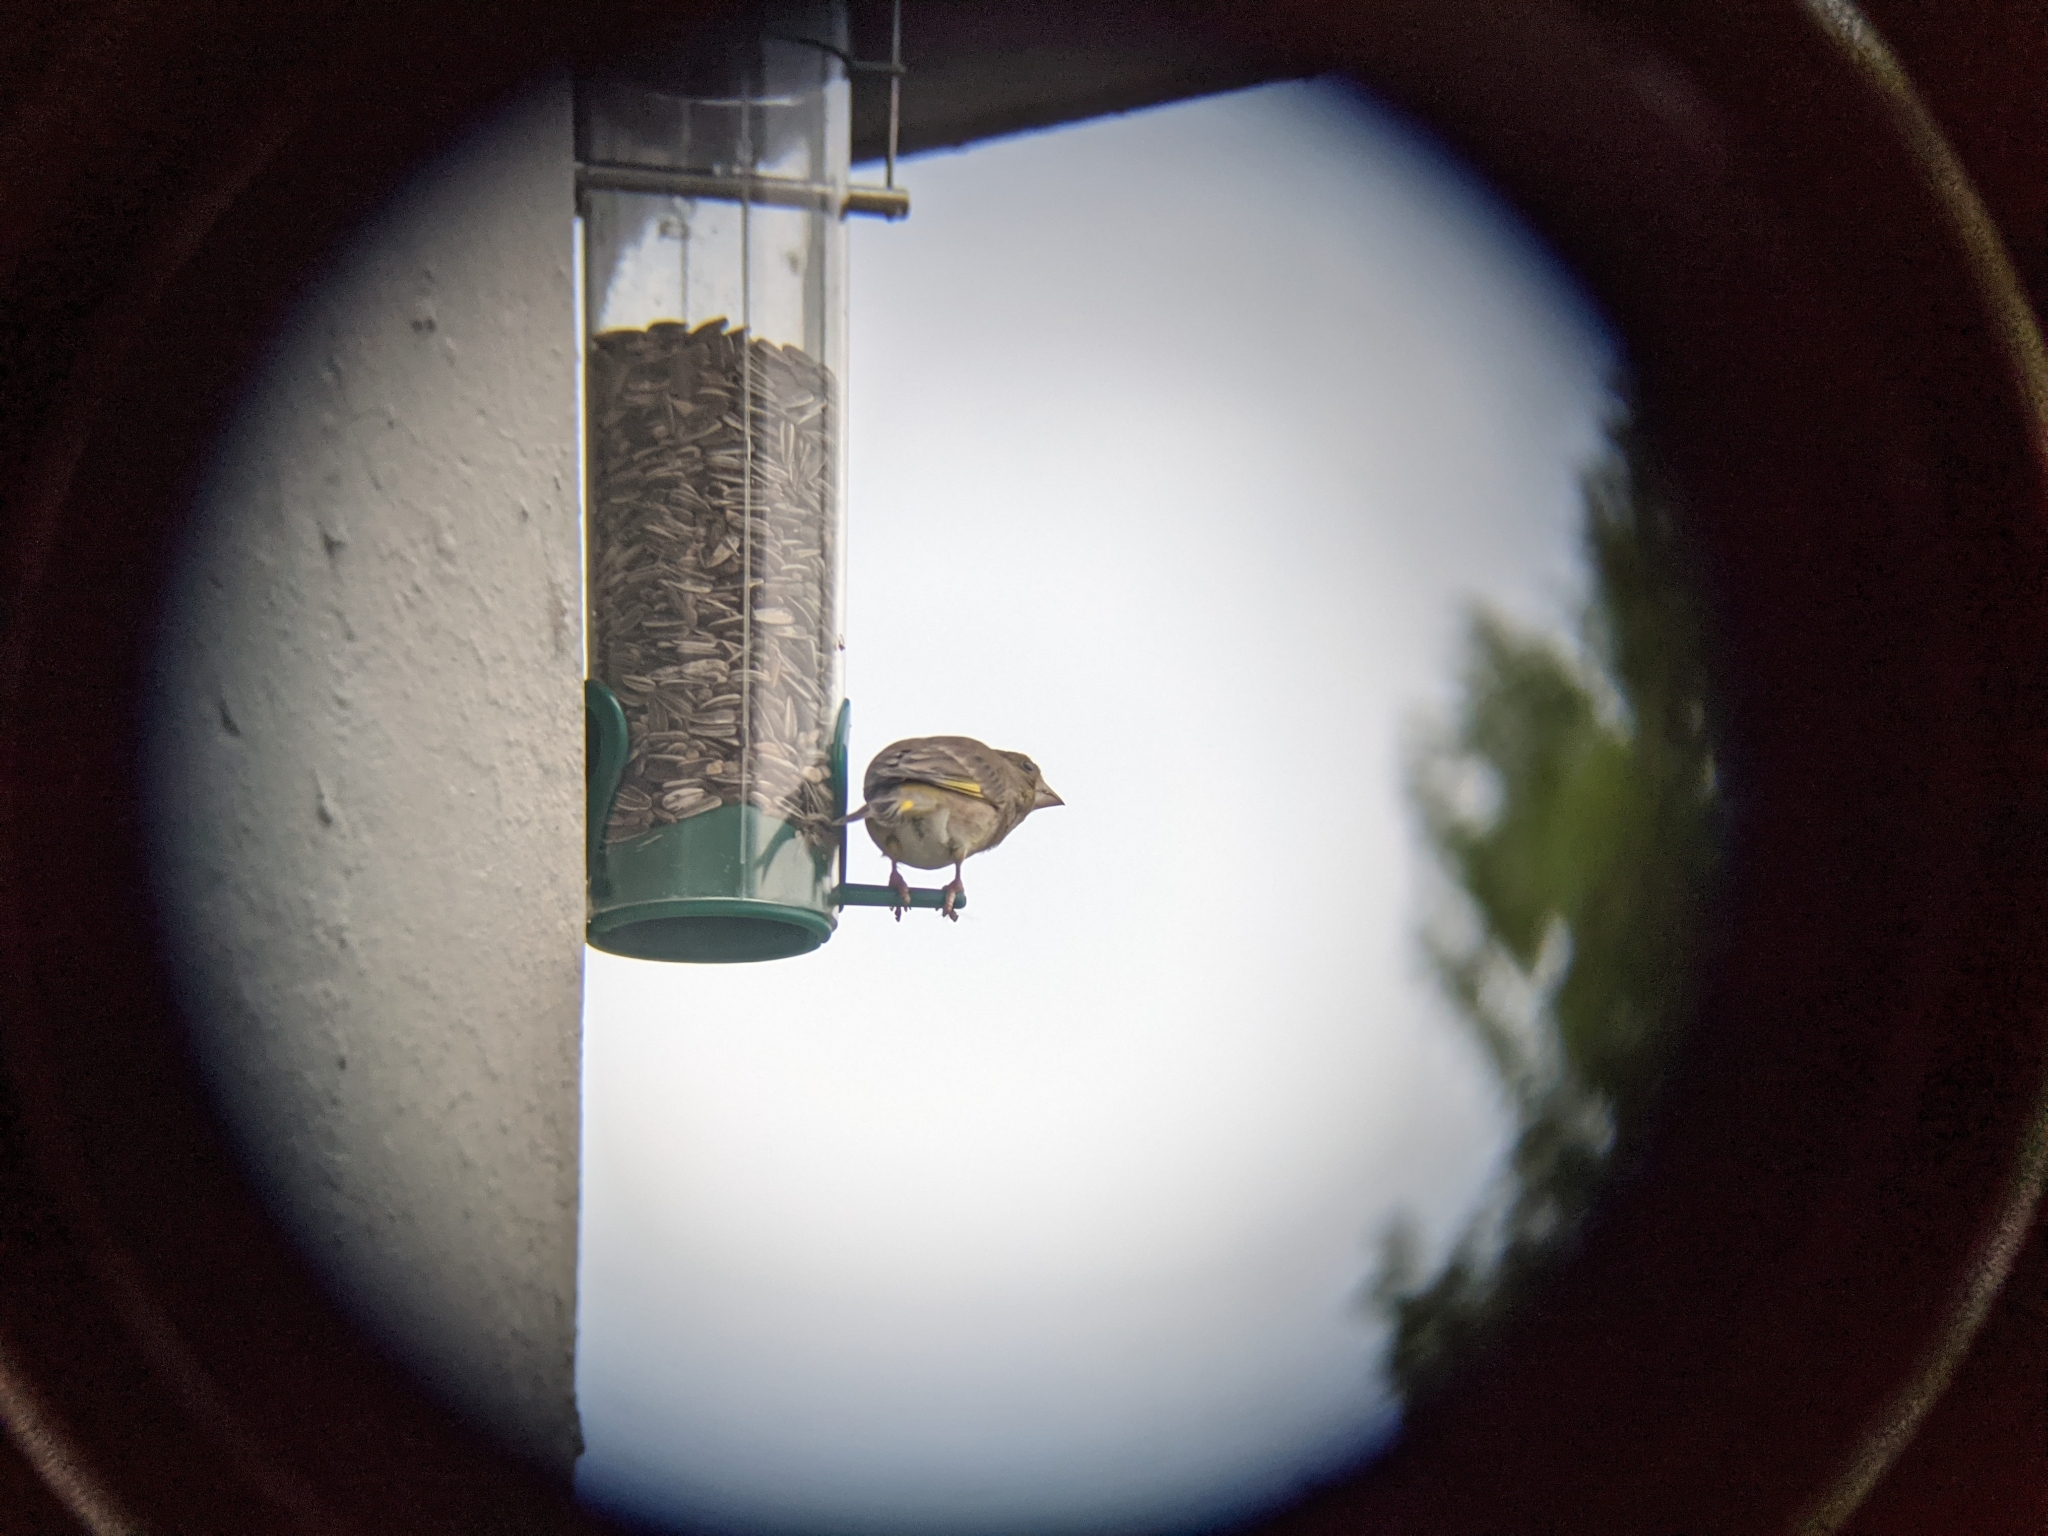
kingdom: Plantae
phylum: Tracheophyta
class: Liliopsida
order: Poales
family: Poaceae
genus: Chloris
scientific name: Chloris chloris
